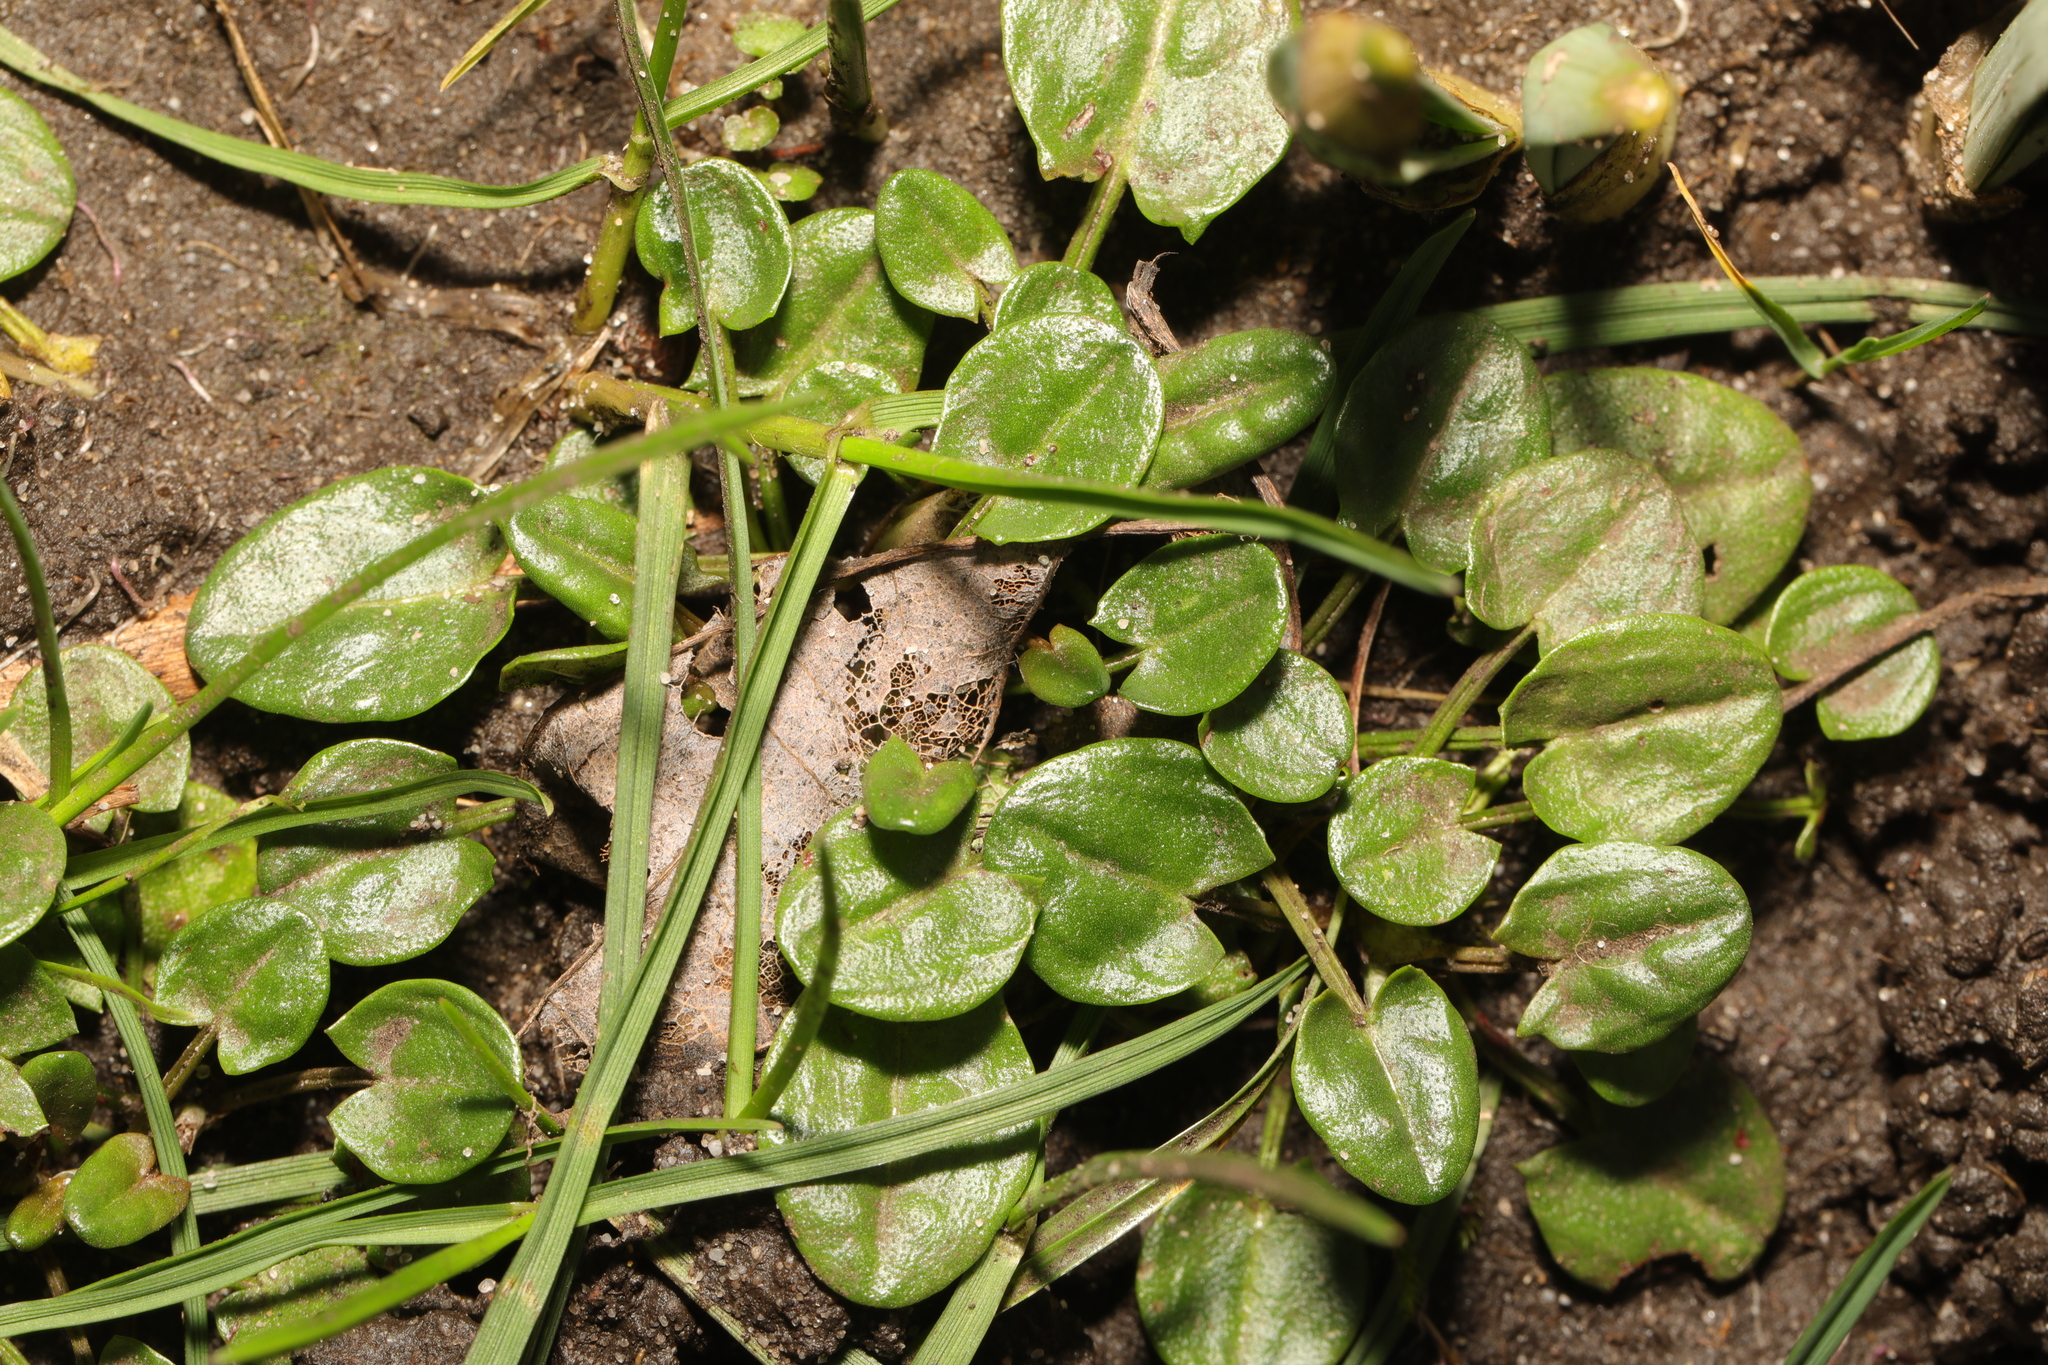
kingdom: Plantae
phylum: Tracheophyta
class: Magnoliopsida
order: Caryophyllales
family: Polygonaceae
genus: Rumex
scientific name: Rumex acetosa
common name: Garden sorrel
